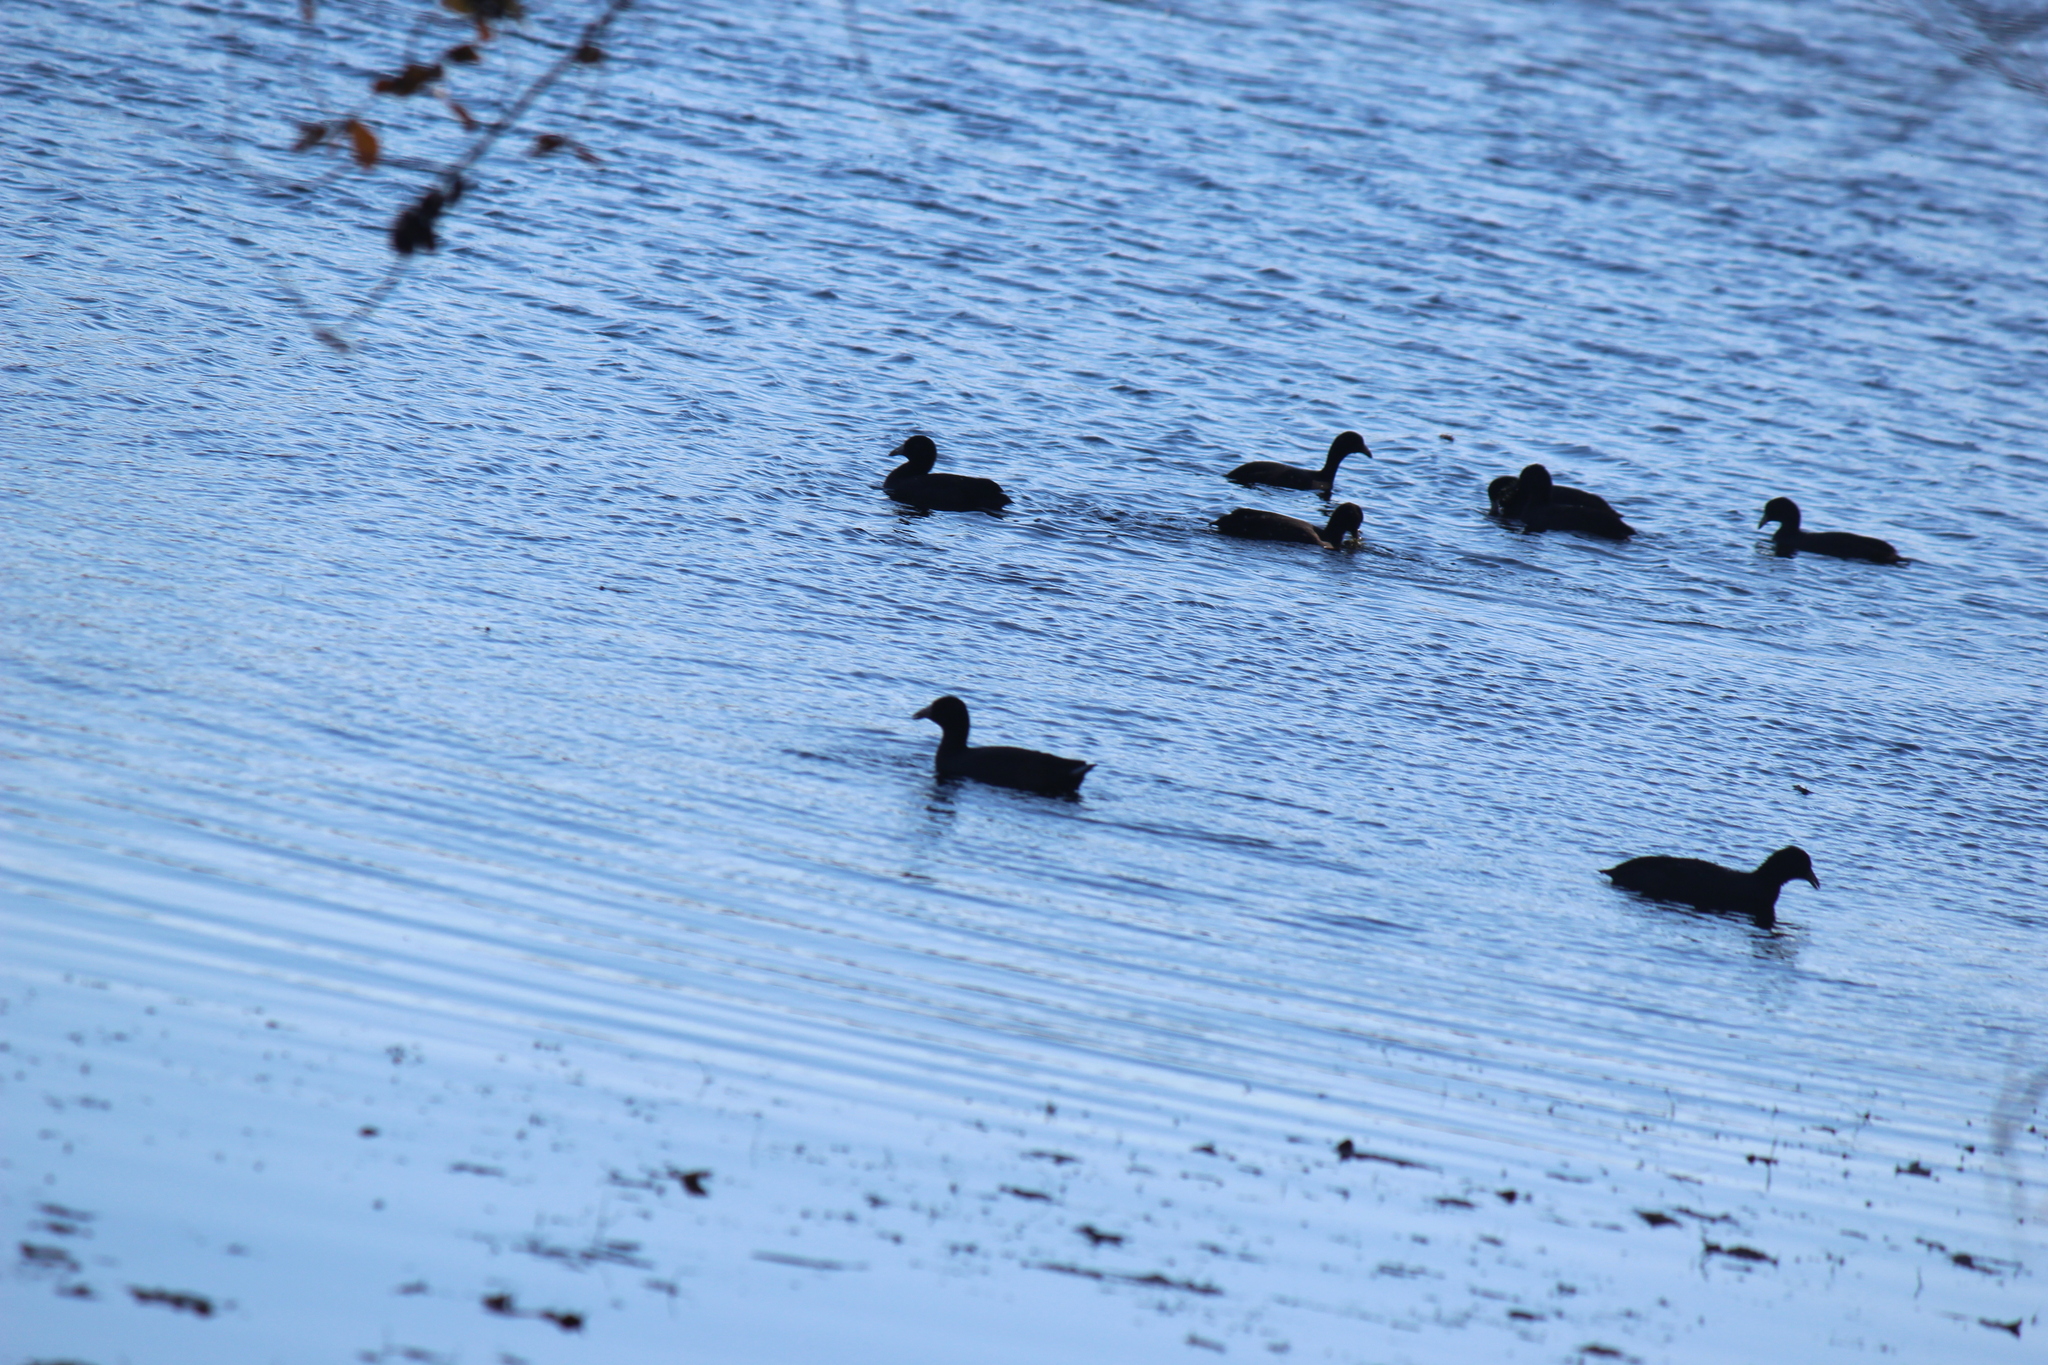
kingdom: Animalia
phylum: Chordata
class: Aves
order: Gruiformes
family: Rallidae
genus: Fulica
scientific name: Fulica americana
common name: American coot
